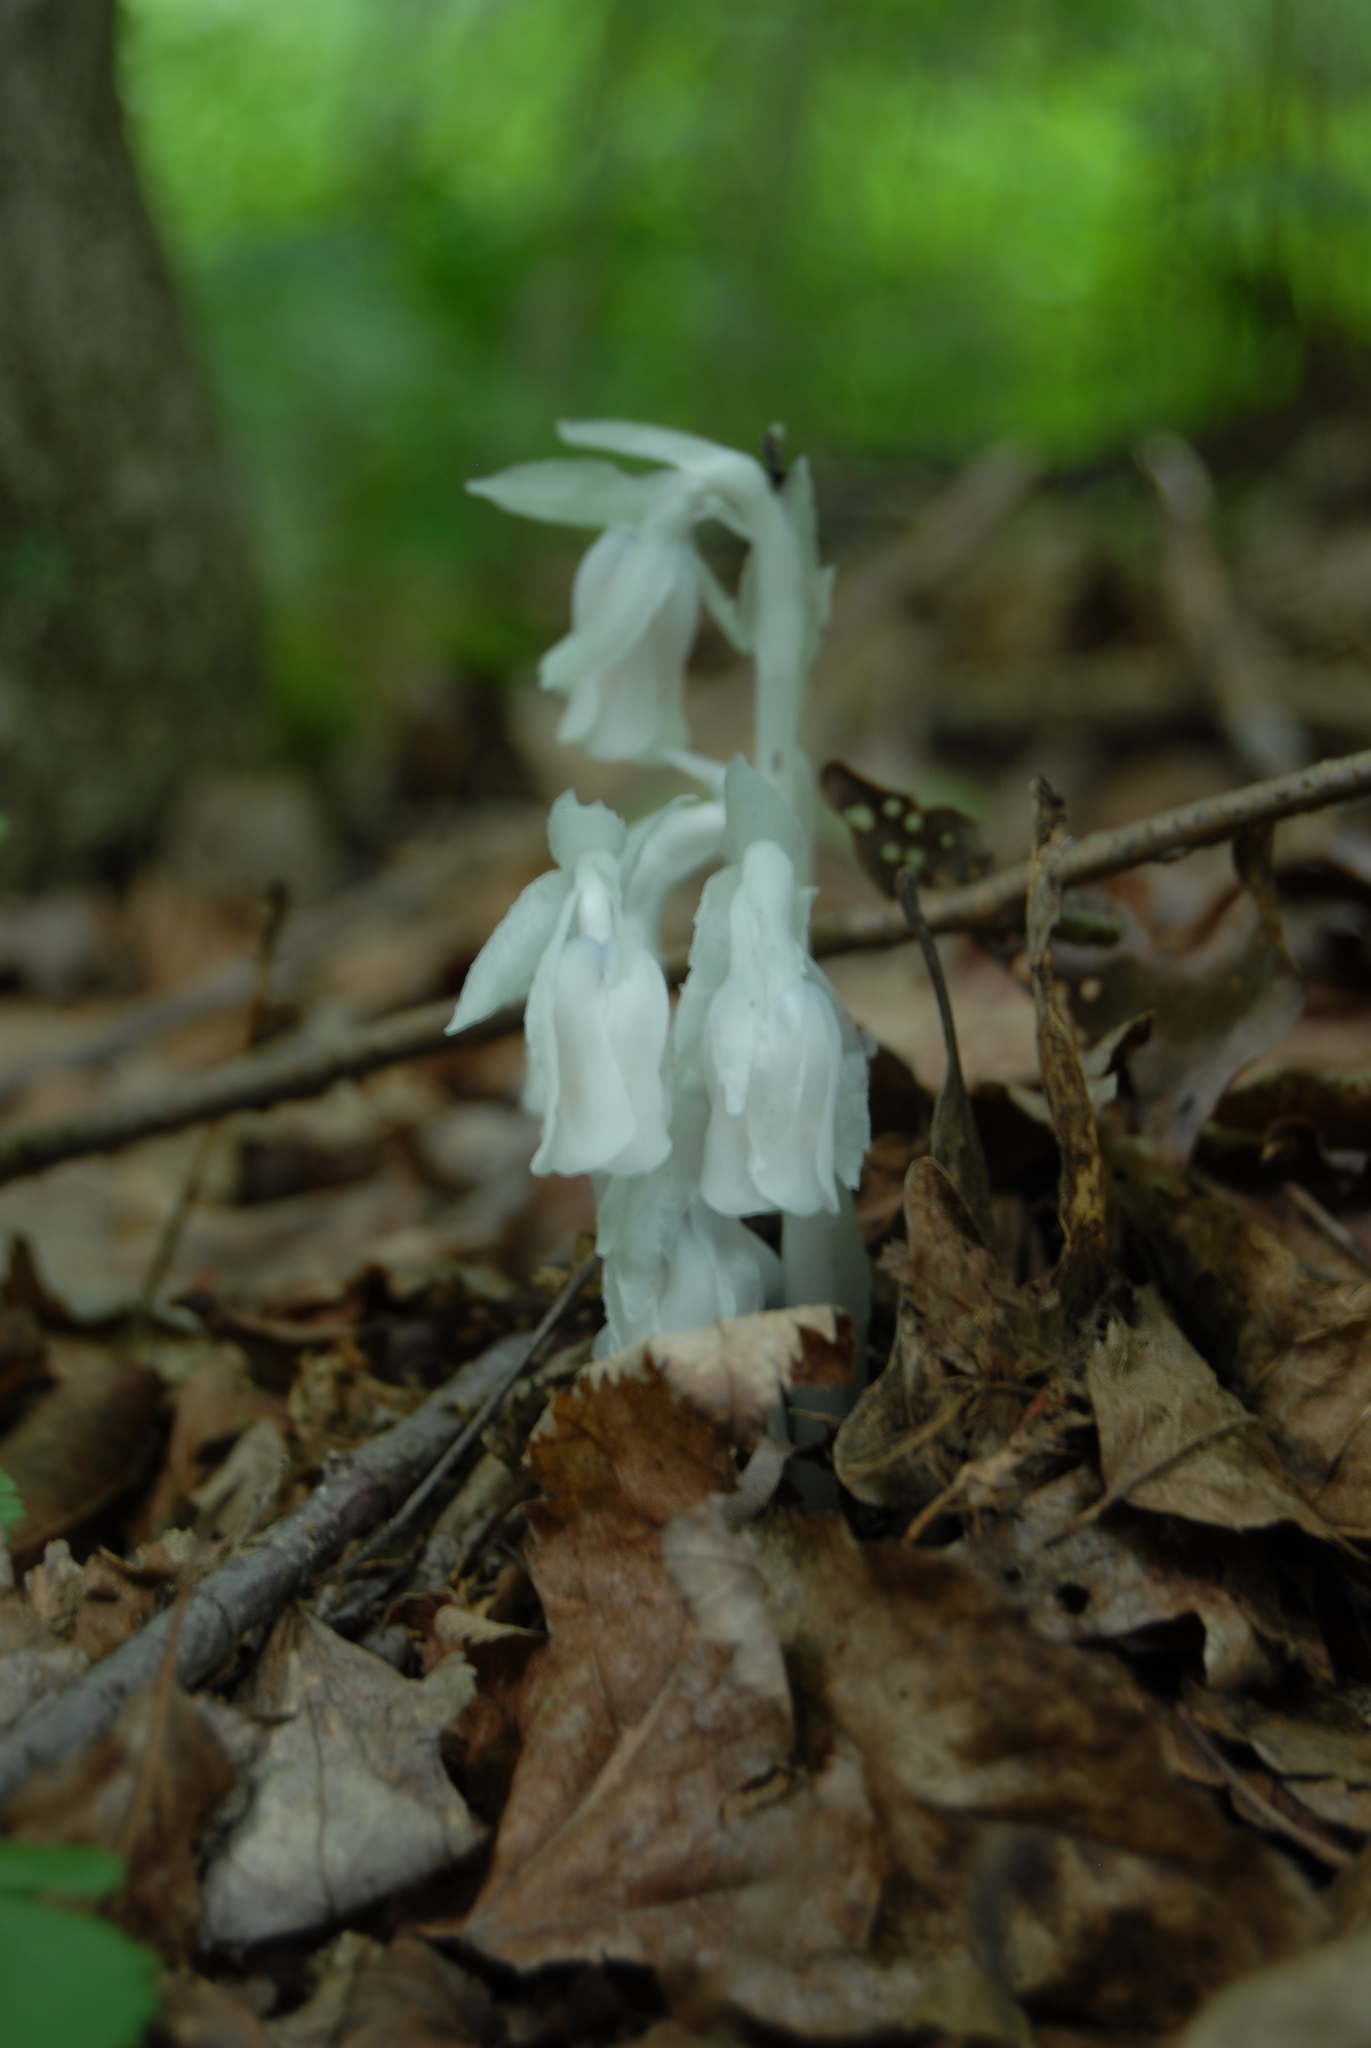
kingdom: Plantae
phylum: Tracheophyta
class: Magnoliopsida
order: Ericales
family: Ericaceae
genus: Monotropa
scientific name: Monotropa uniflora
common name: Convulsion root
